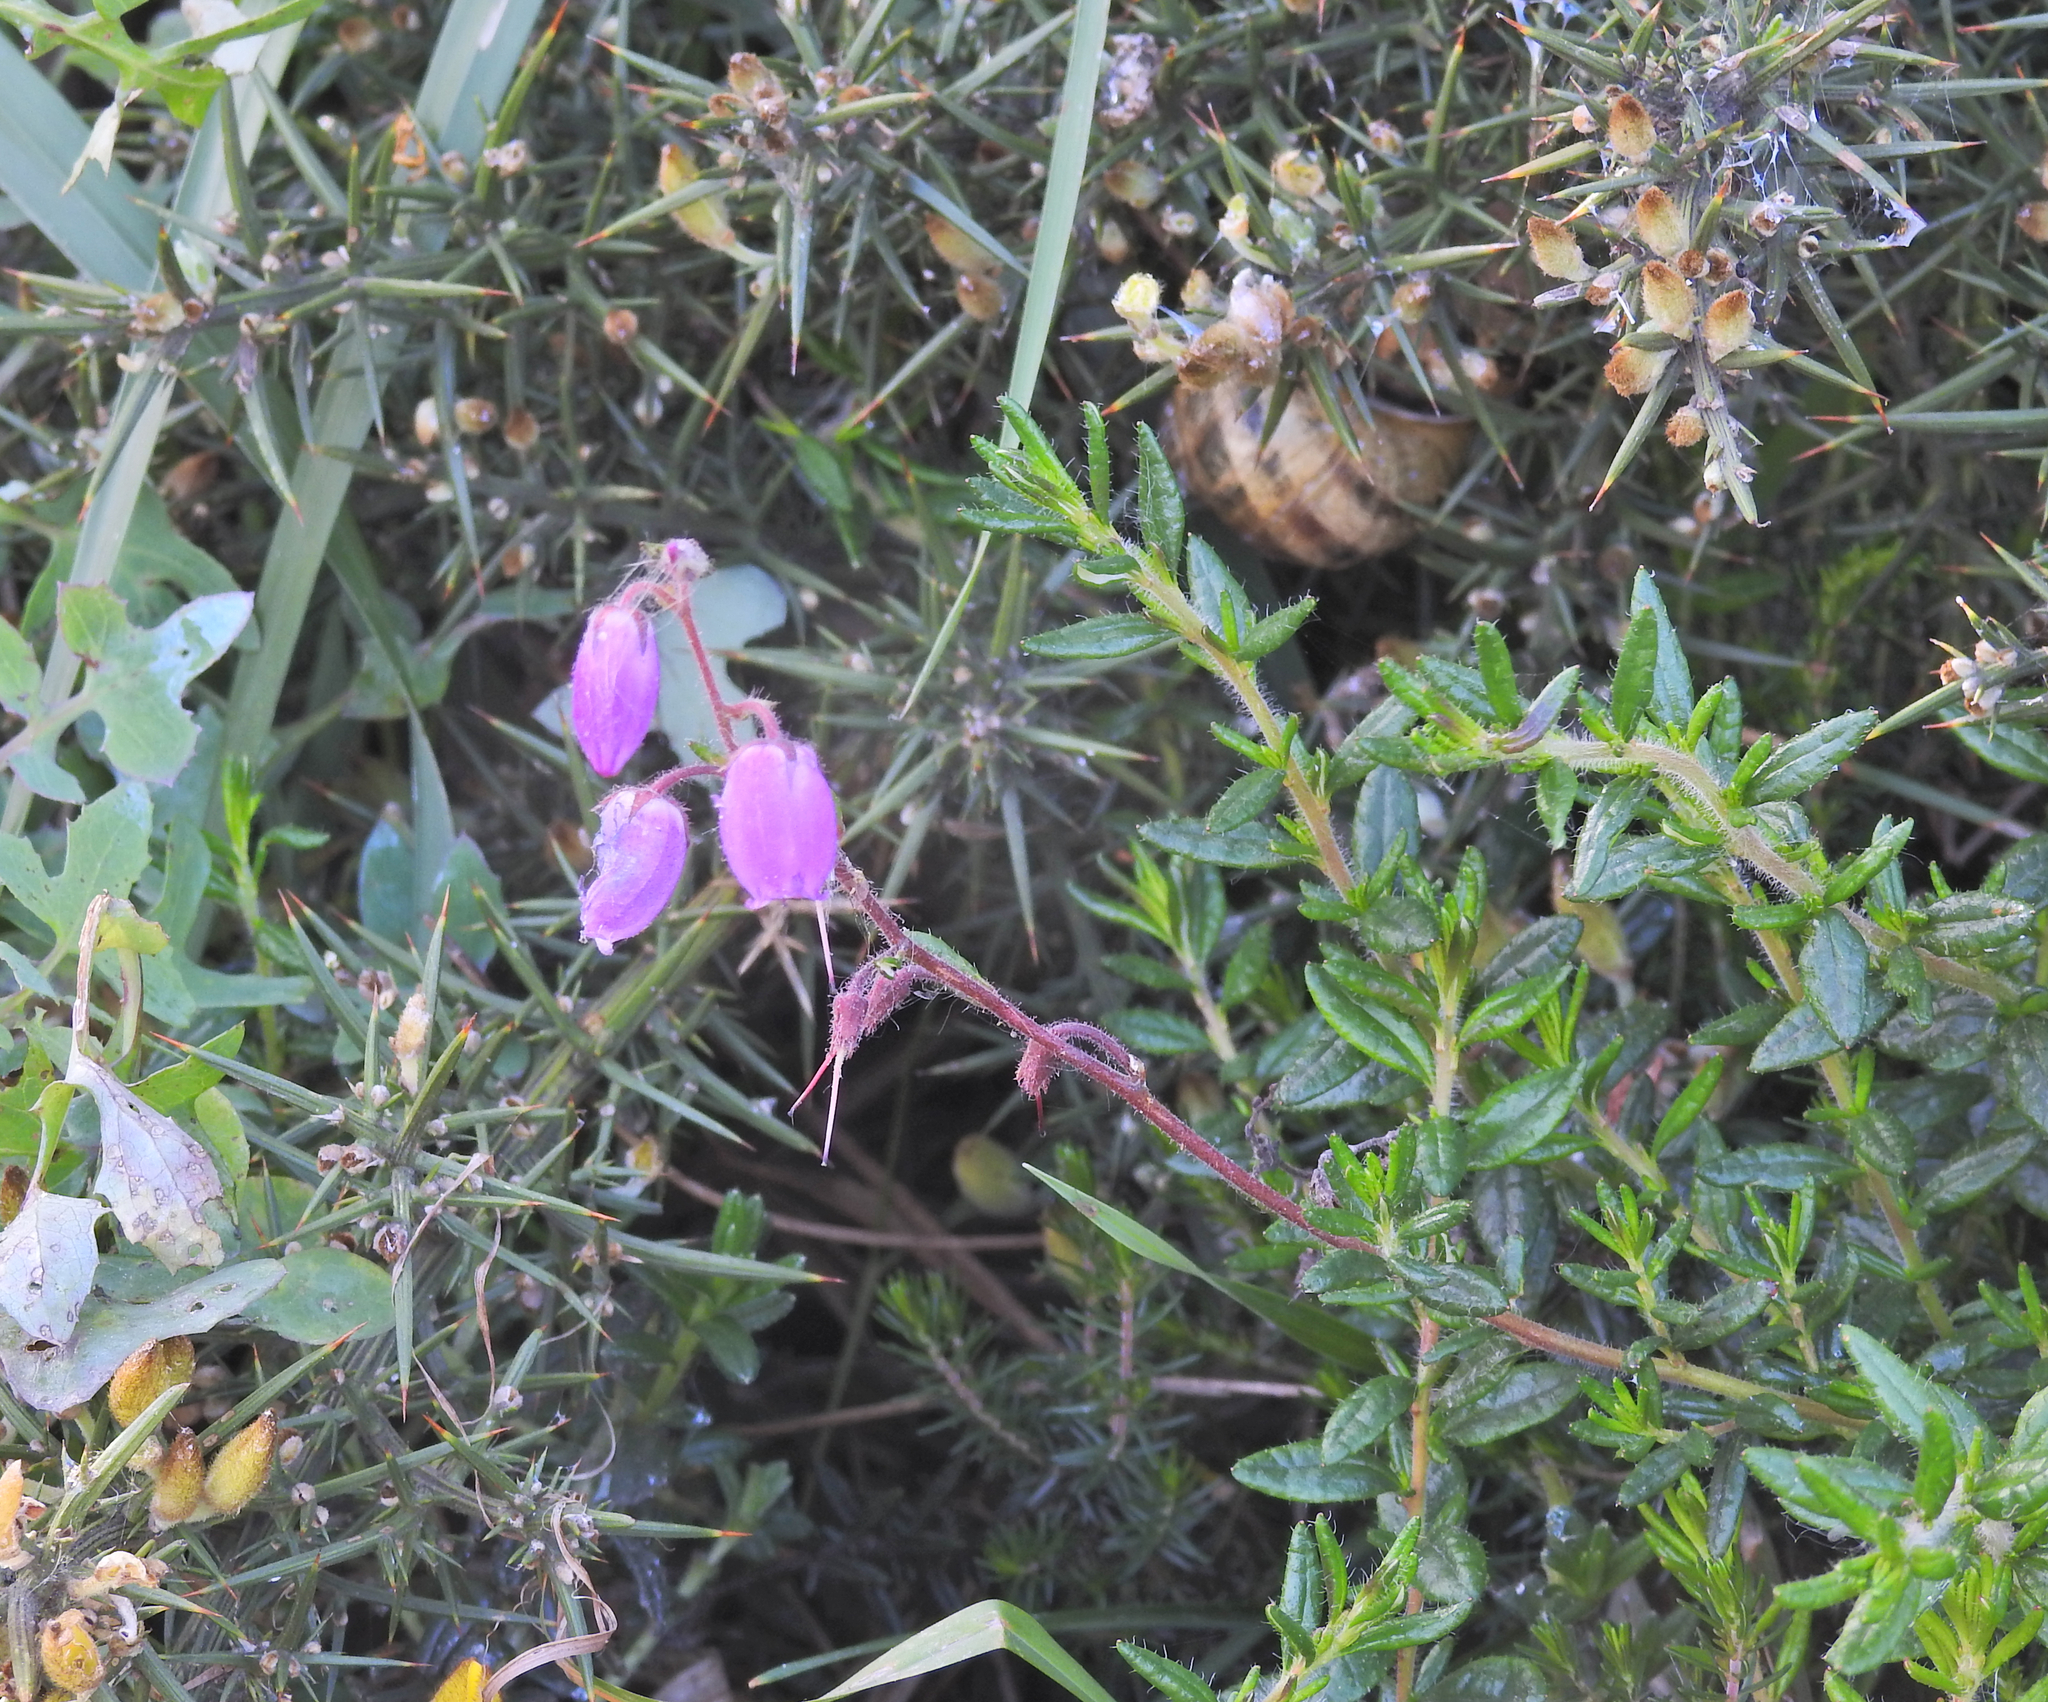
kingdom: Plantae
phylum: Tracheophyta
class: Magnoliopsida
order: Ericales
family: Ericaceae
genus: Daboecia
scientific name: Daboecia cantabrica
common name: St. dabeoc's-heath
